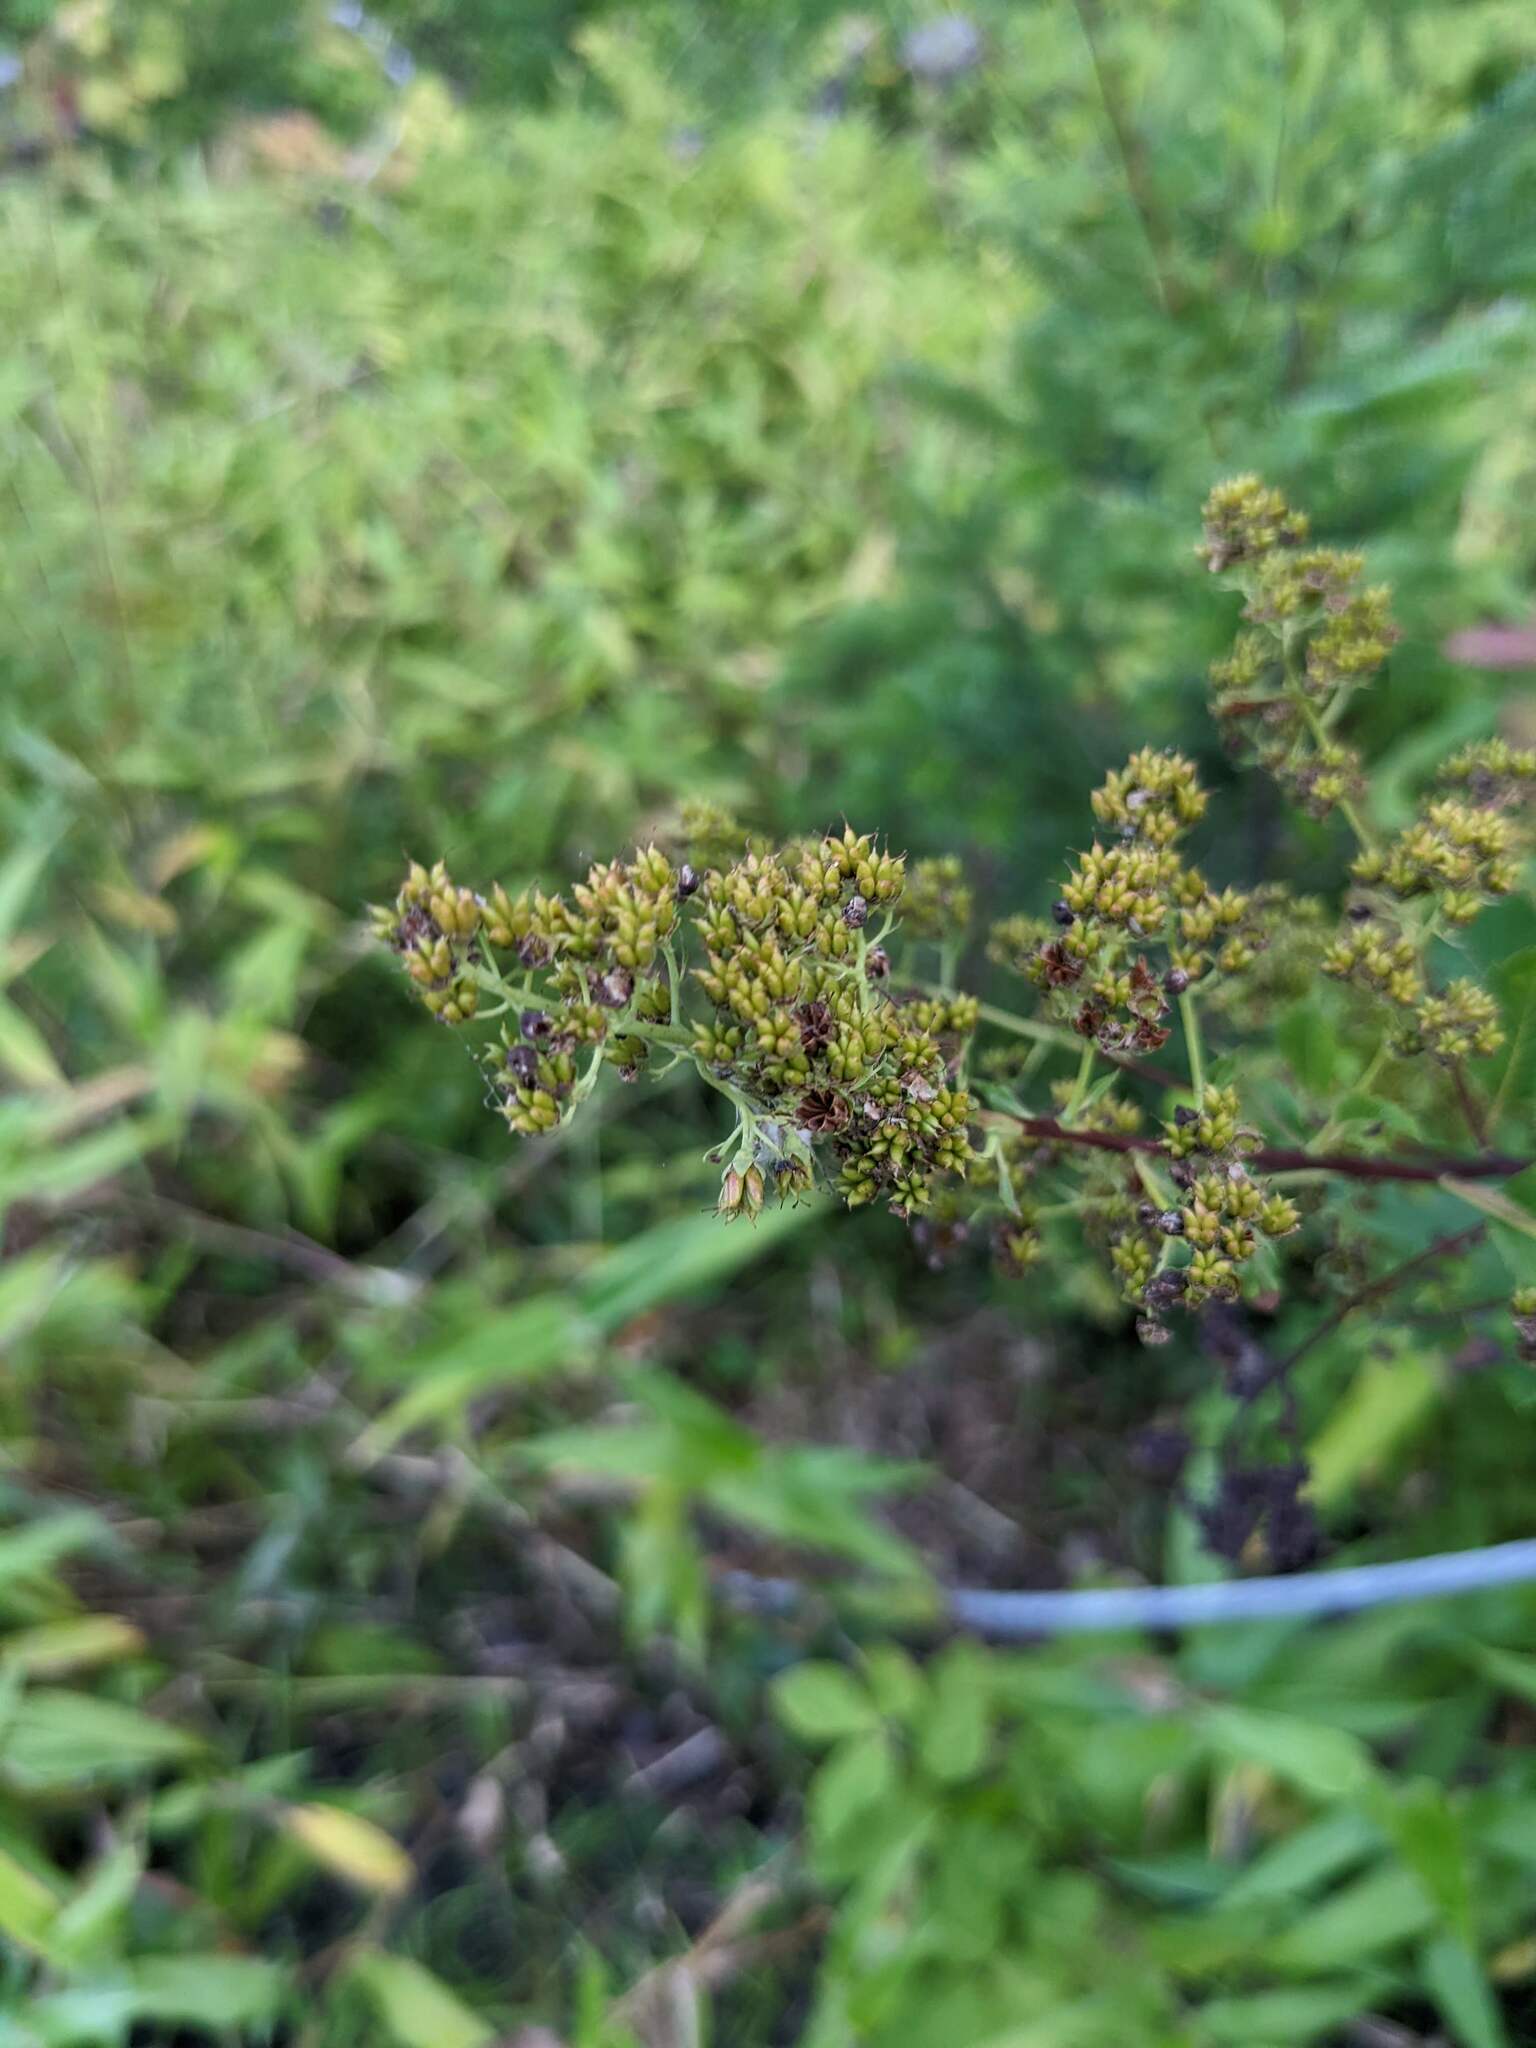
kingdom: Plantae
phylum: Tracheophyta
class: Magnoliopsida
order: Rosales
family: Rosaceae
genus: Spiraea
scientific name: Spiraea alba
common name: Pale bridewort
